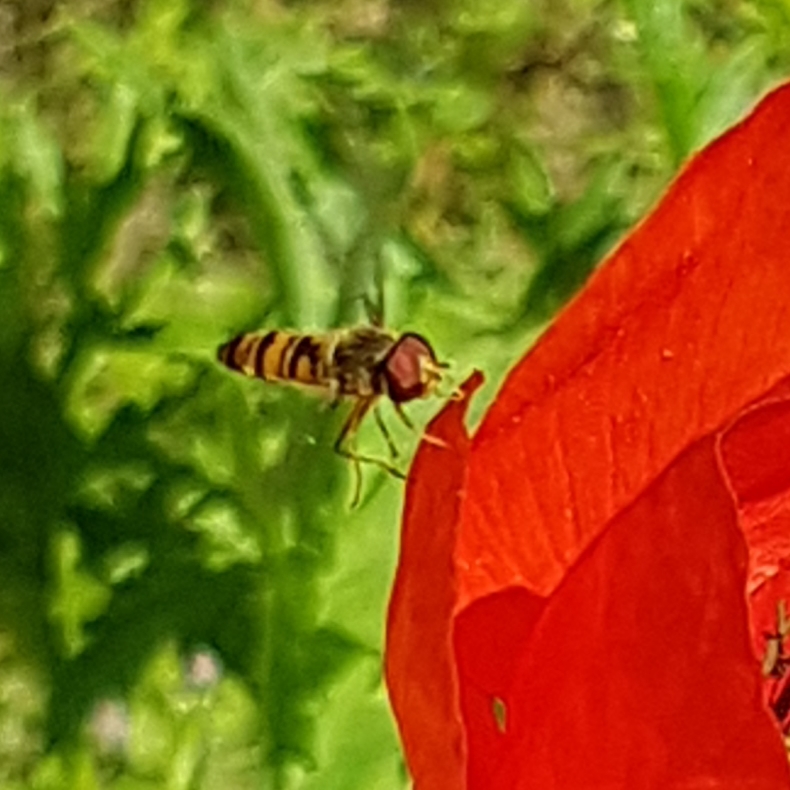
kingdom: Animalia
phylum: Arthropoda
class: Insecta
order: Diptera
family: Syrphidae
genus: Episyrphus
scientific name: Episyrphus balteatus
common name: Marmalade hoverfly
